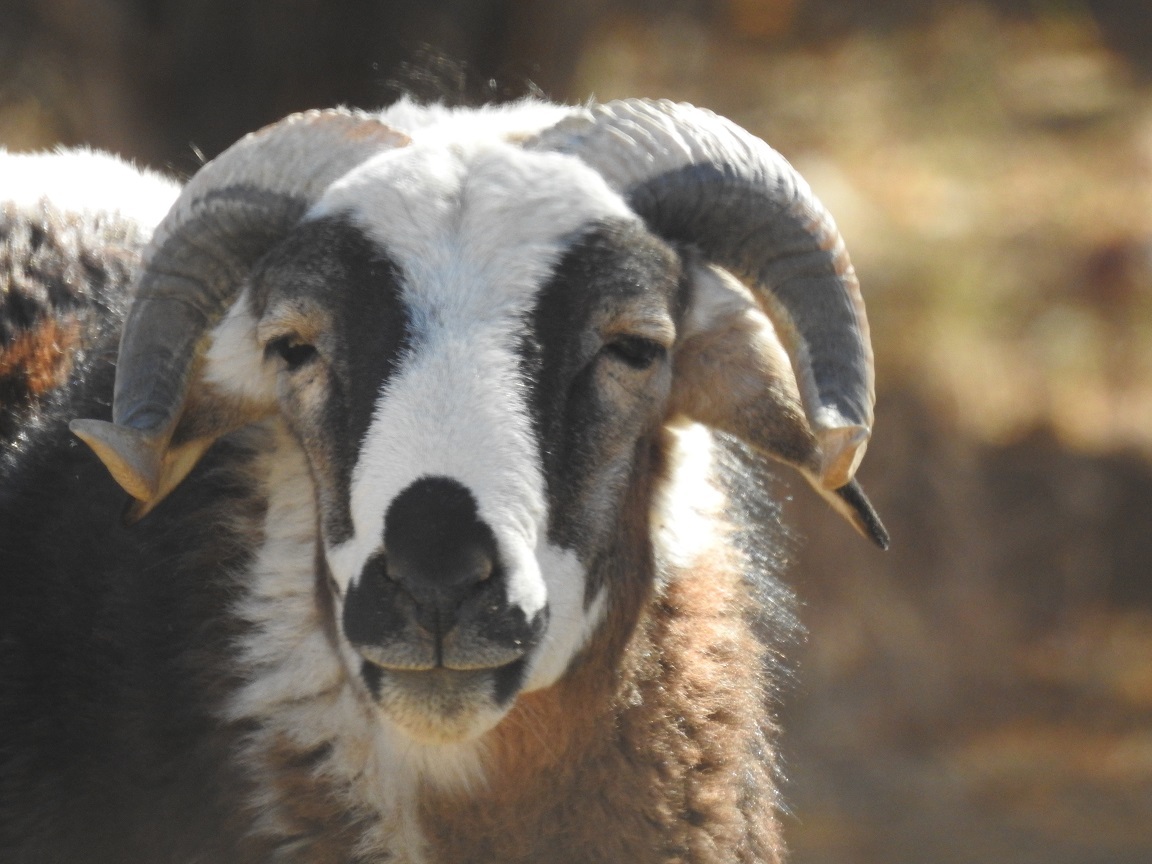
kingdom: Animalia
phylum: Chordata
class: Mammalia
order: Artiodactyla
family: Bovidae
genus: Ovis
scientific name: Ovis aries
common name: Domestic sheep
